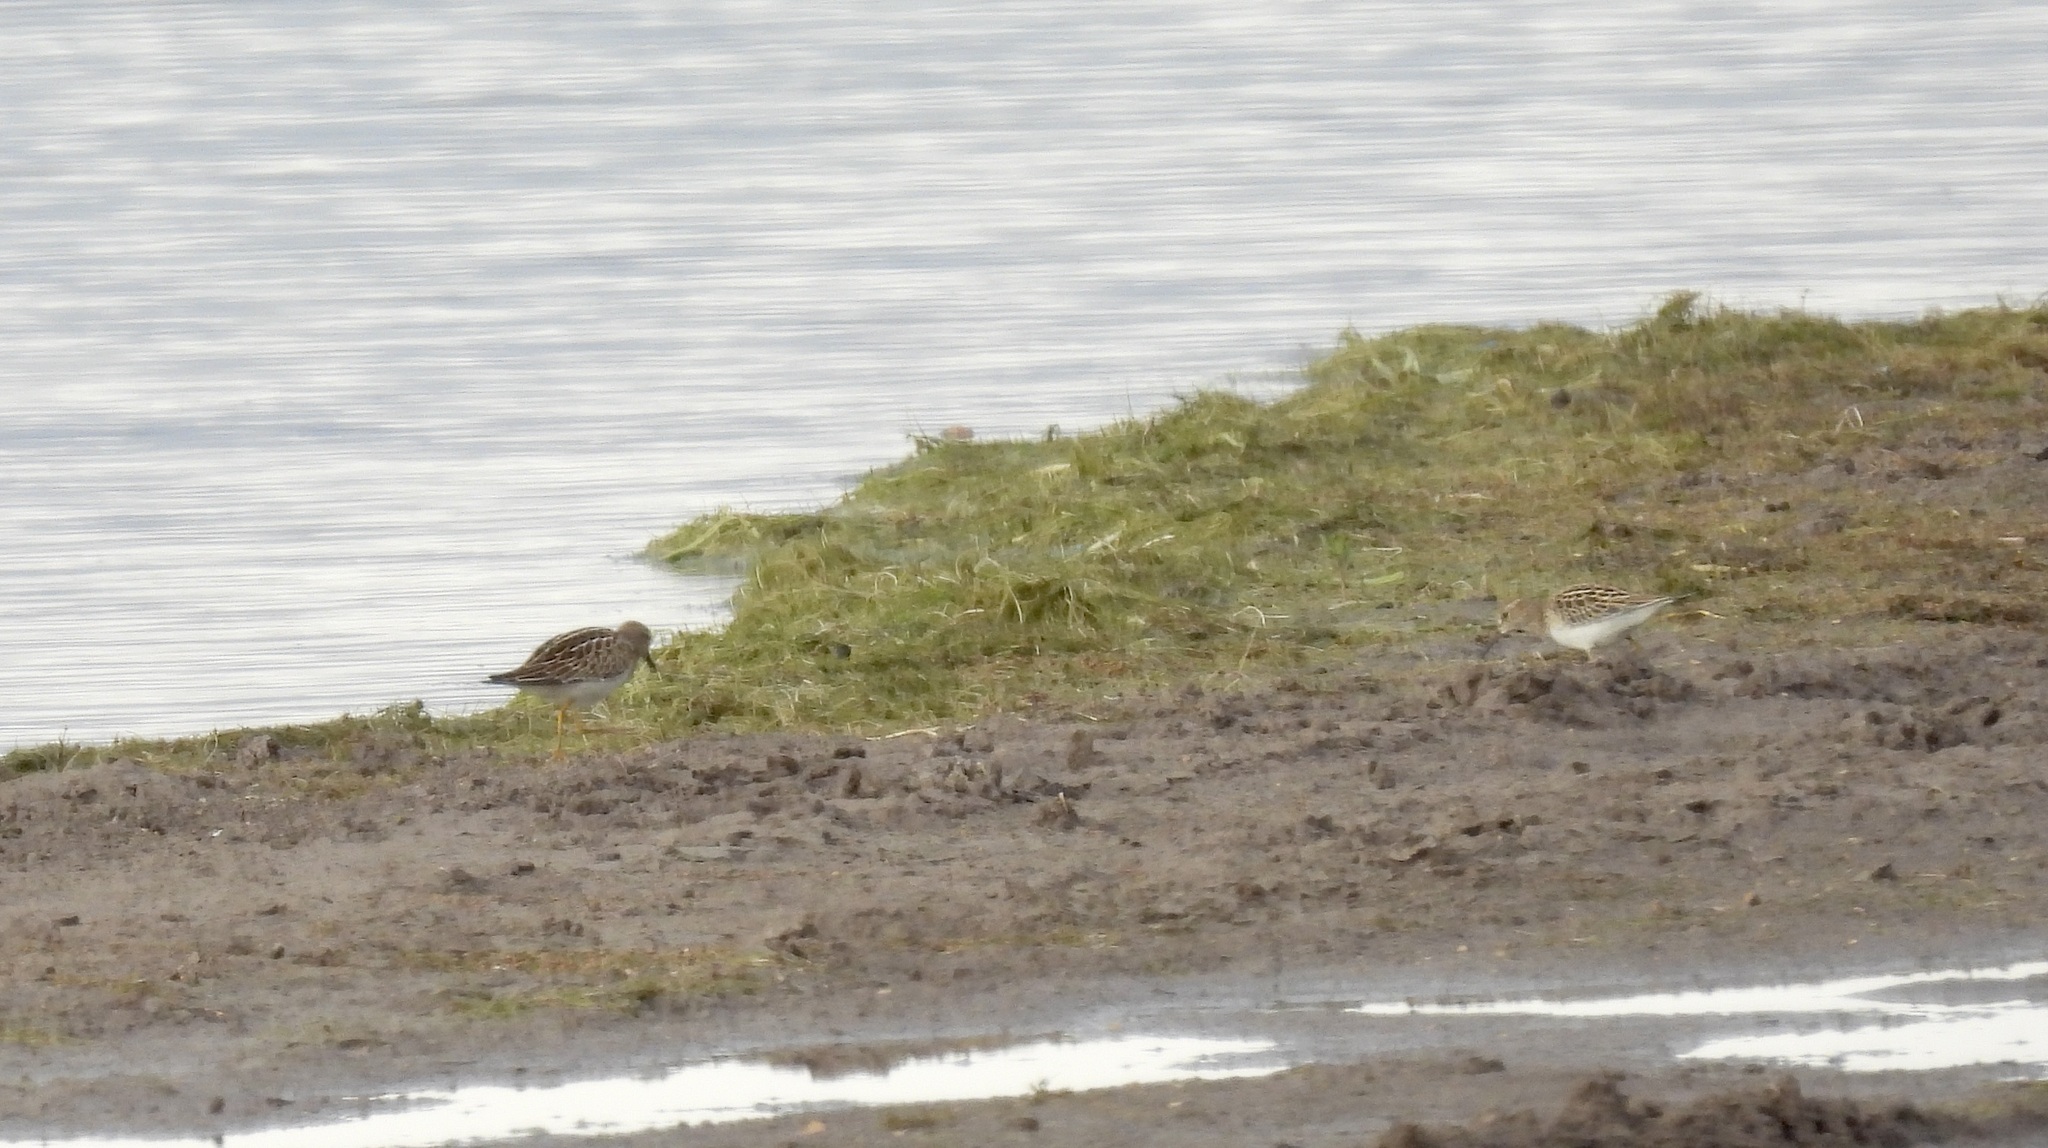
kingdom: Animalia
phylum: Chordata
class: Aves
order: Charadriiformes
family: Scolopacidae
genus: Calidris
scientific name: Calidris melanotos
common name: Pectoral sandpiper
